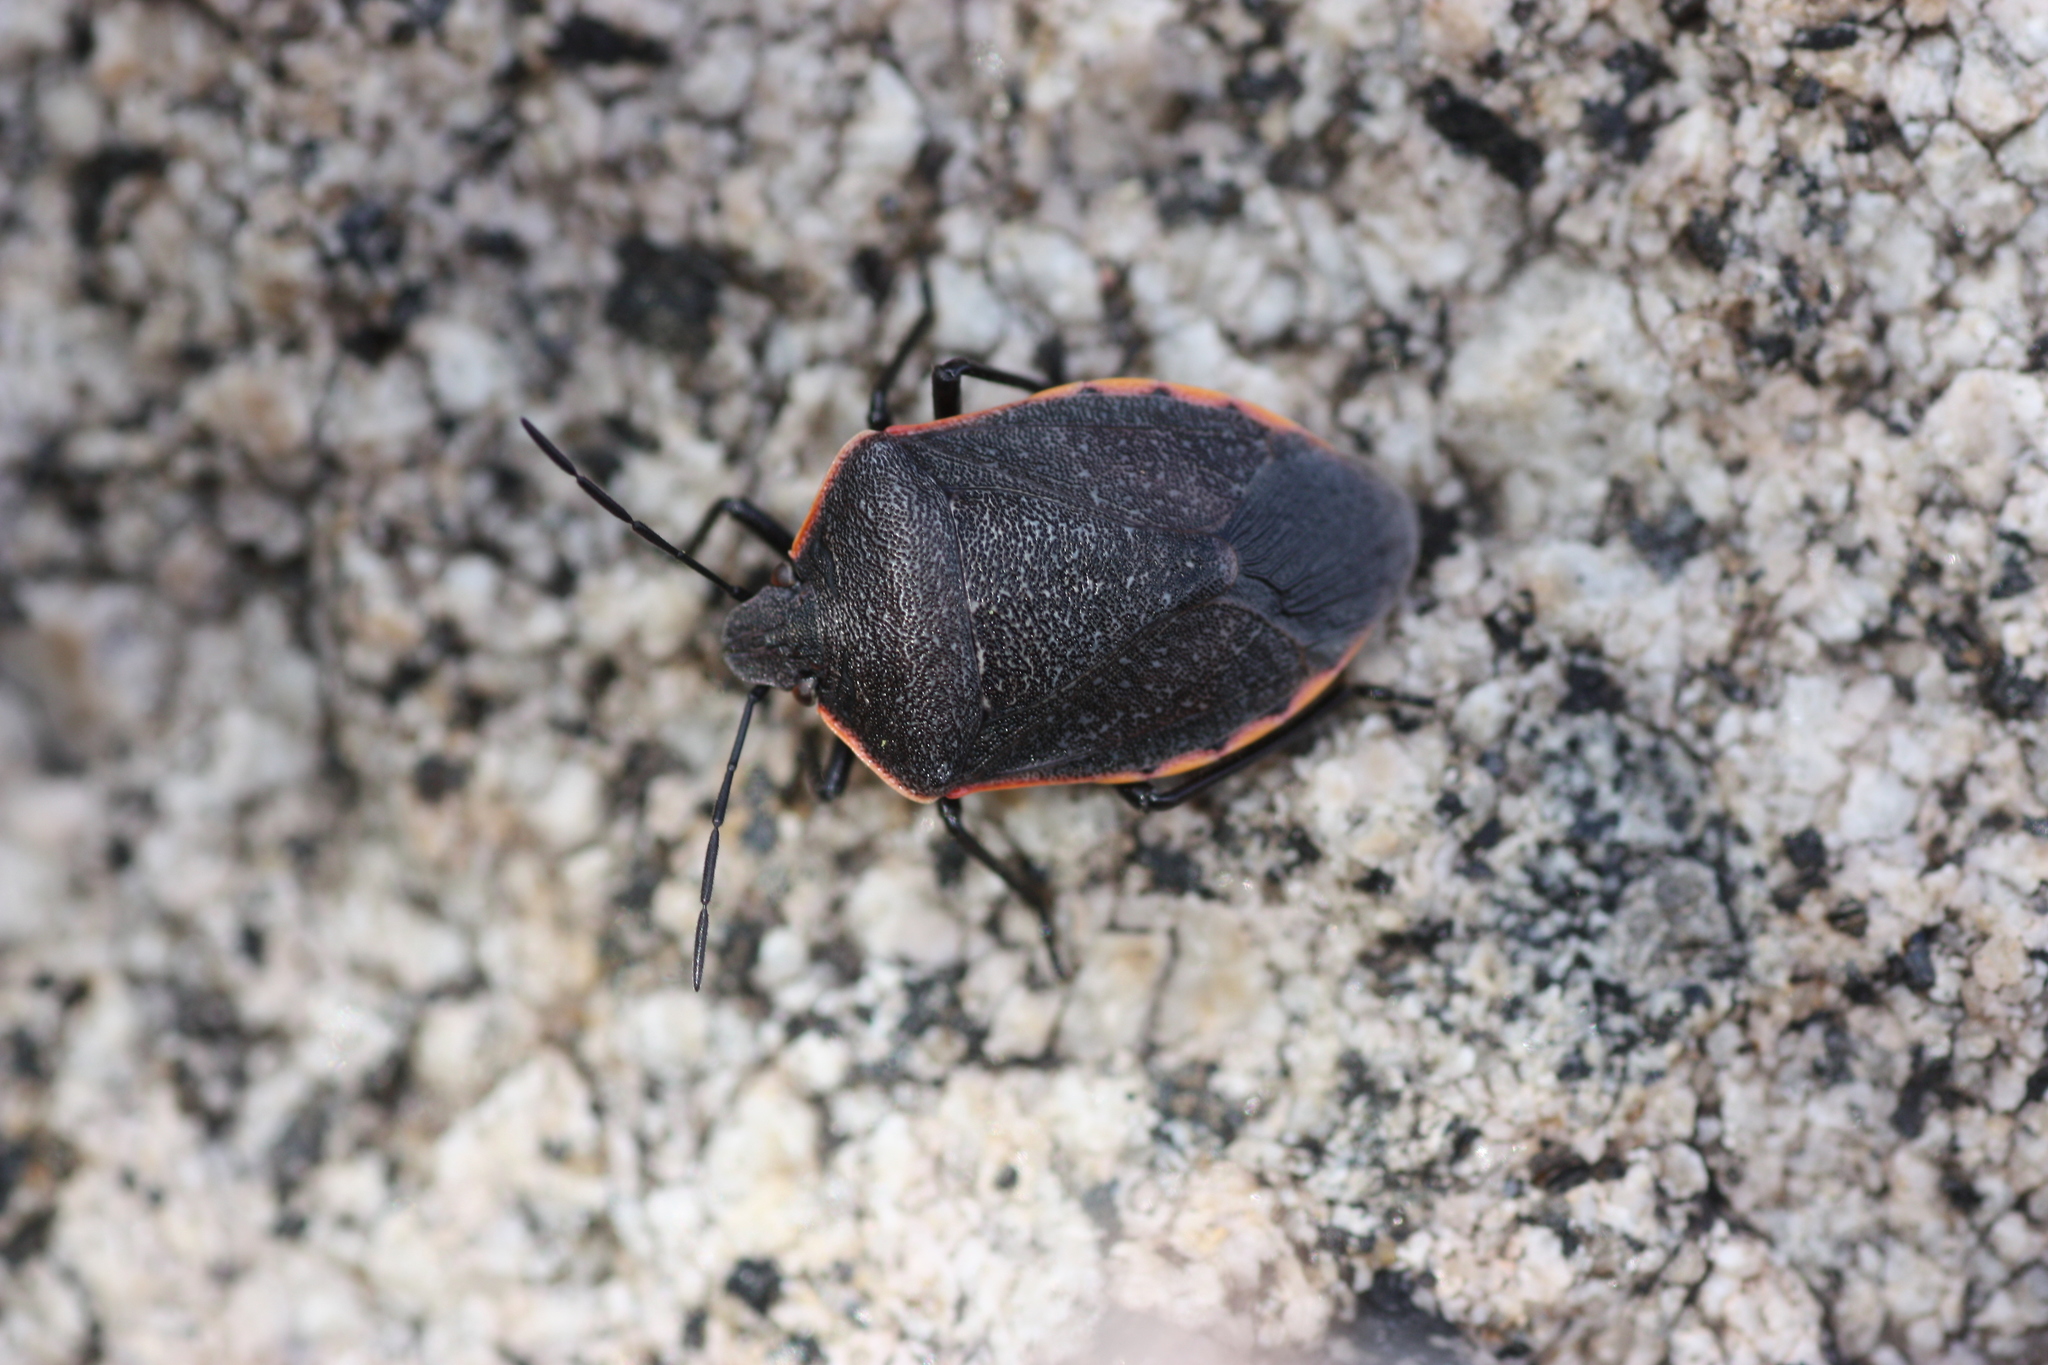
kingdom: Animalia
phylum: Arthropoda
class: Insecta
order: Hemiptera
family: Pentatomidae
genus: Chlorochroa
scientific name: Chlorochroa ligata
